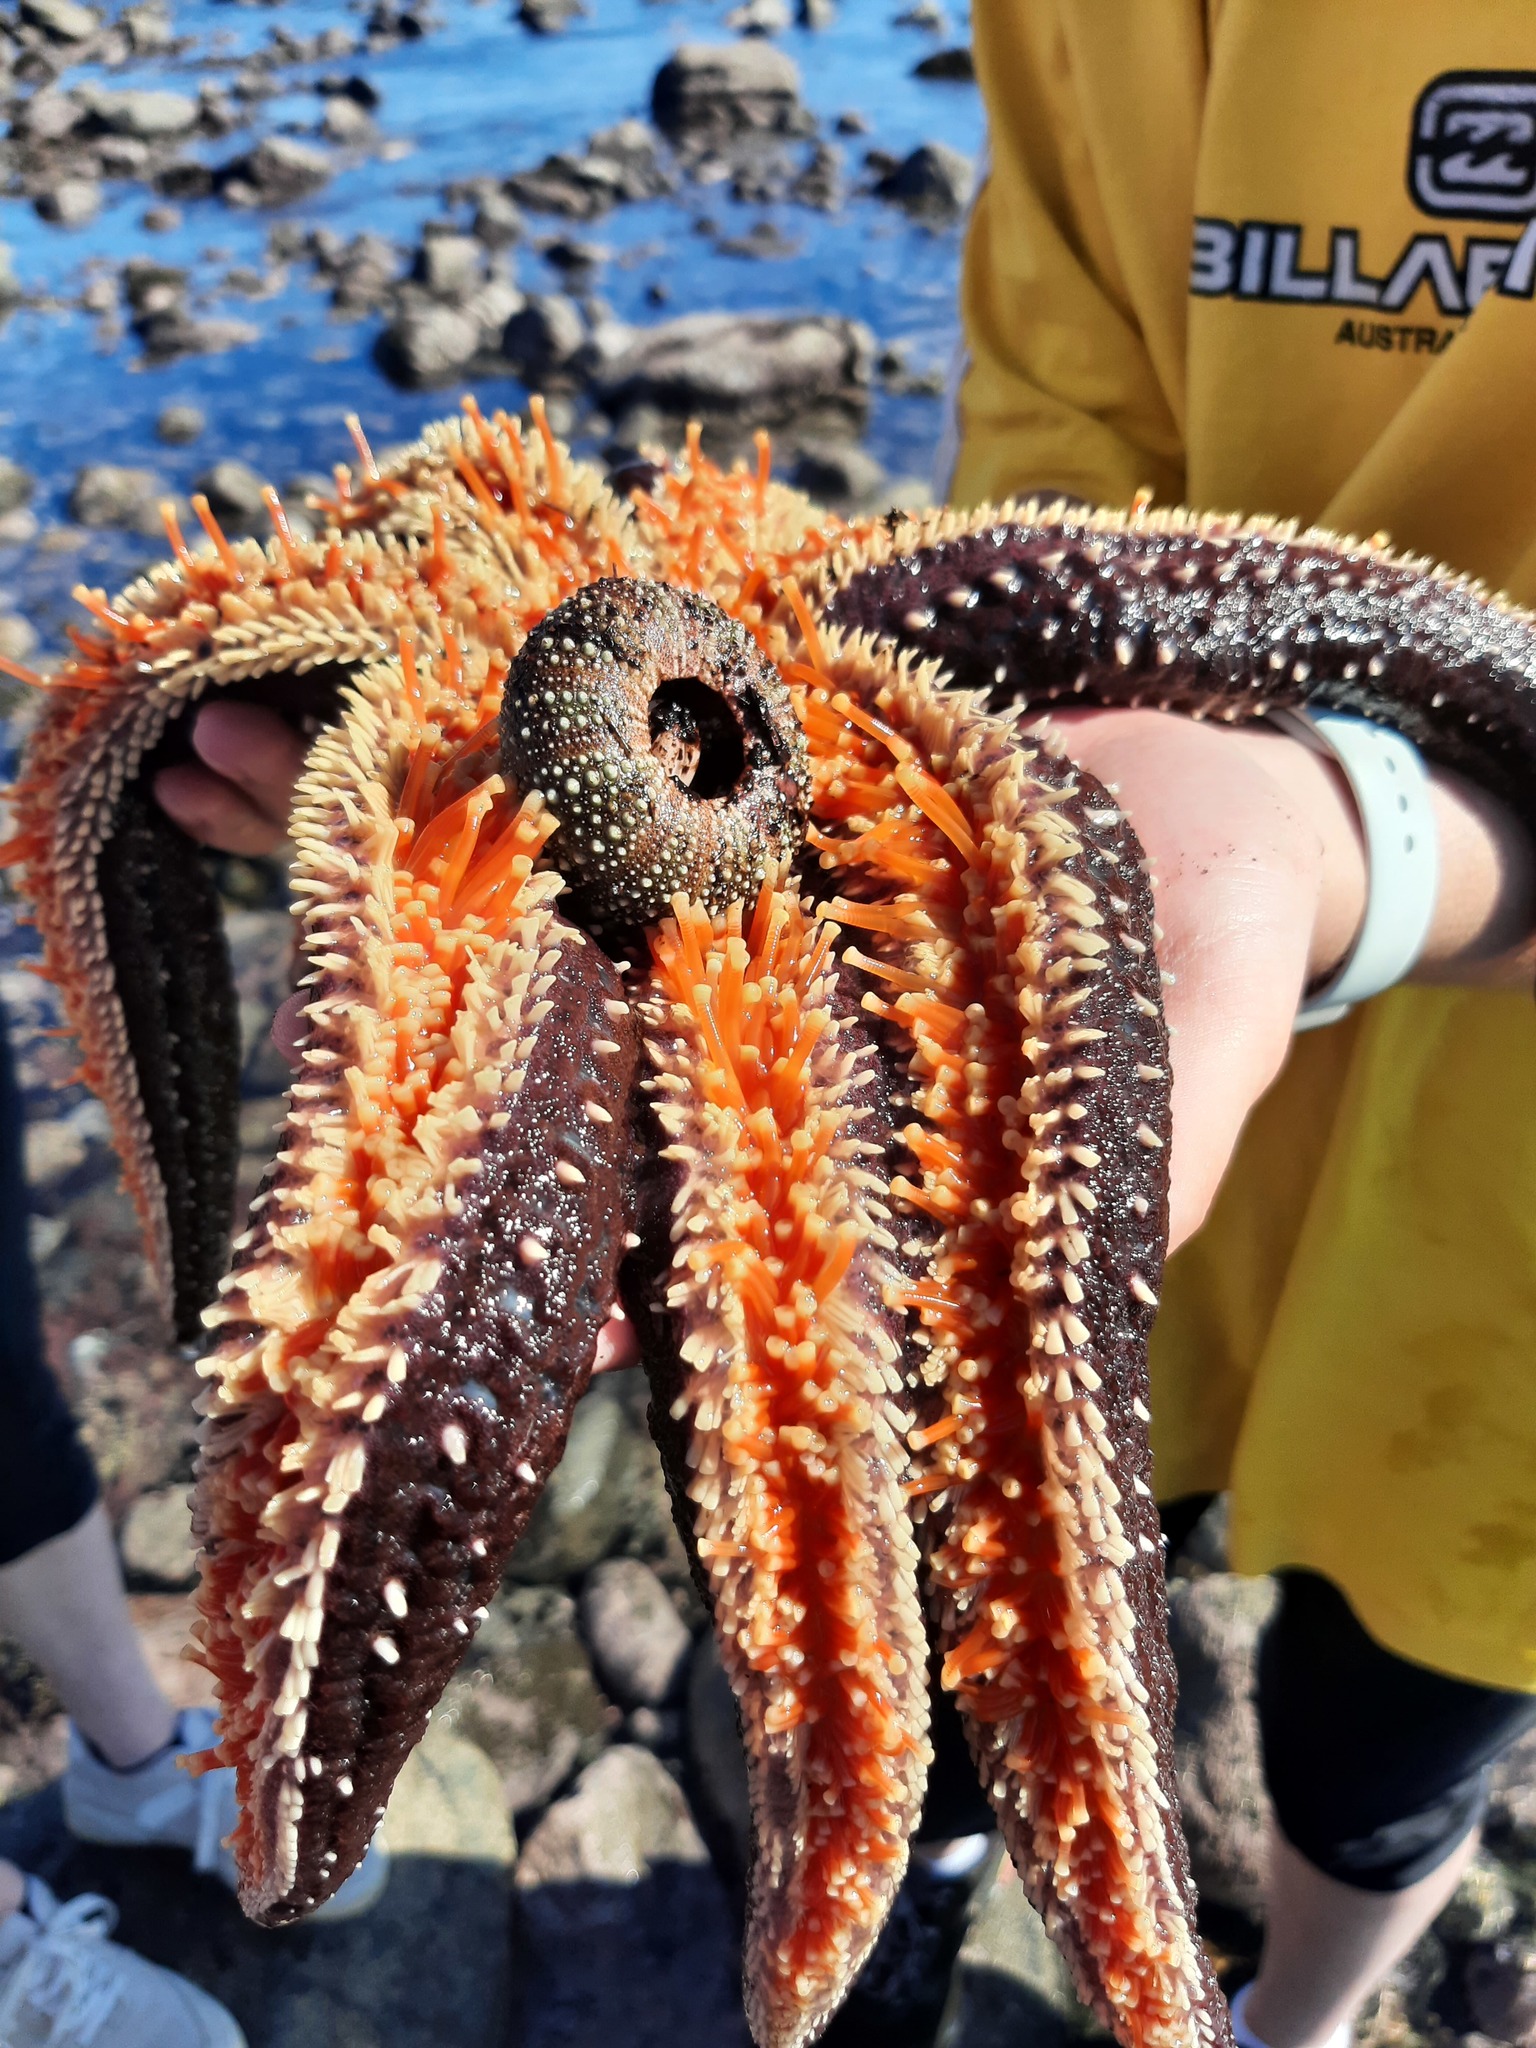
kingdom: Animalia
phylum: Echinodermata
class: Asteroidea
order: Forcipulatida
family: Asteriidae
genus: Astrostole
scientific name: Astrostole scabra
